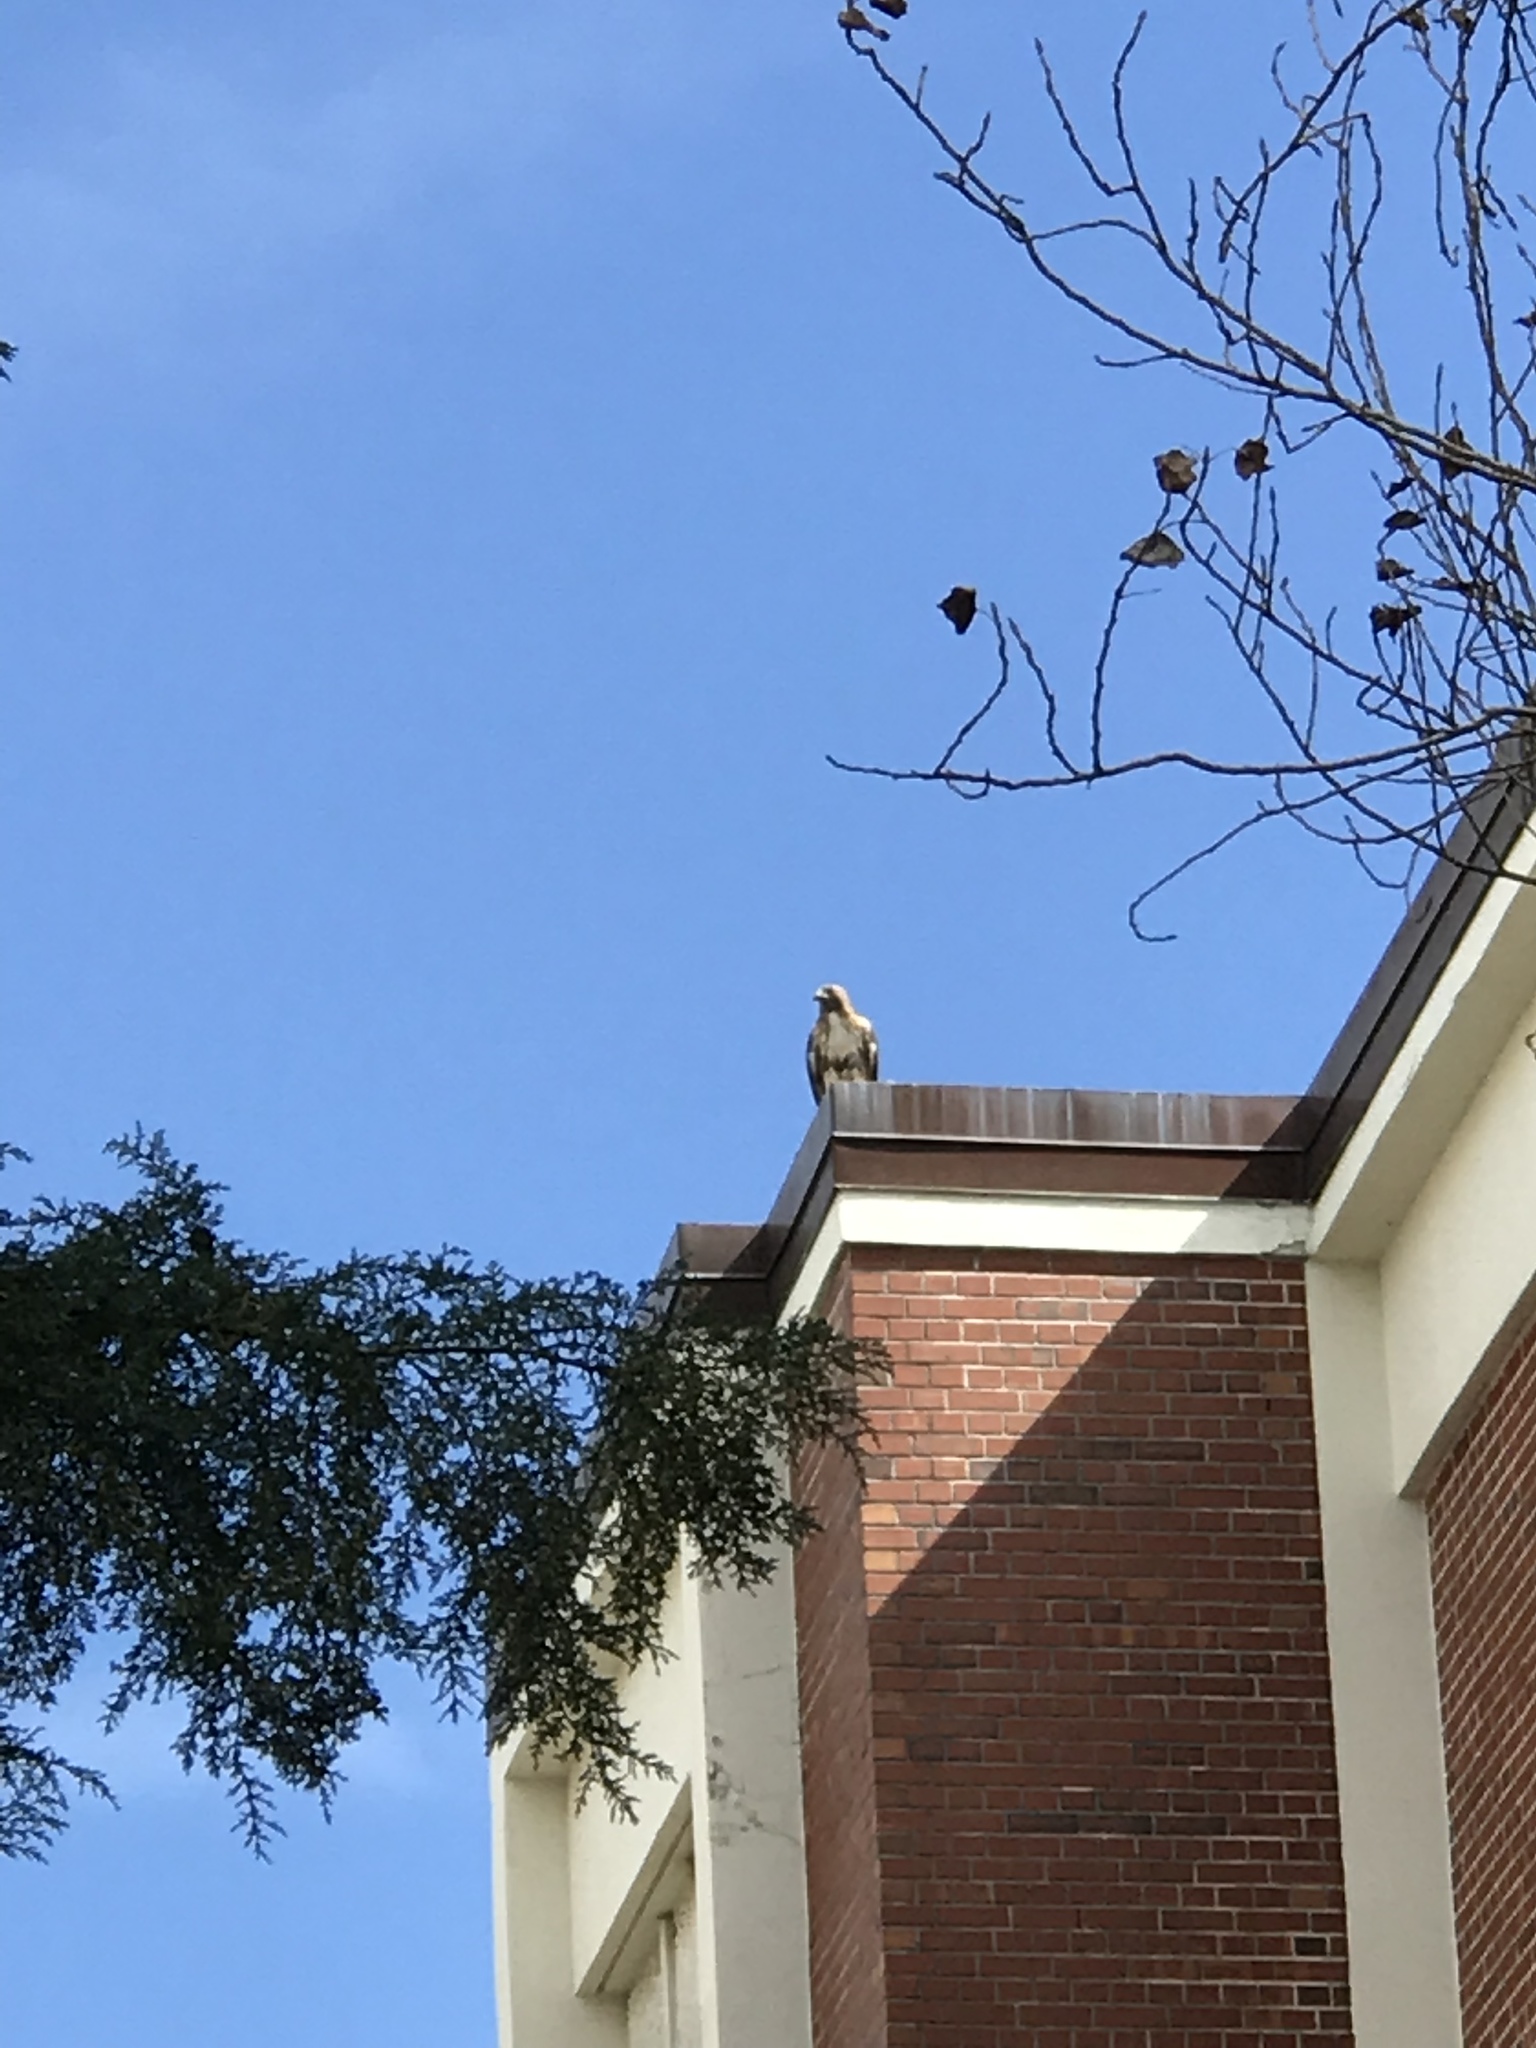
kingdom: Animalia
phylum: Chordata
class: Aves
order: Accipitriformes
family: Accipitridae
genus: Buteo
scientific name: Buteo jamaicensis
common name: Red-tailed hawk
